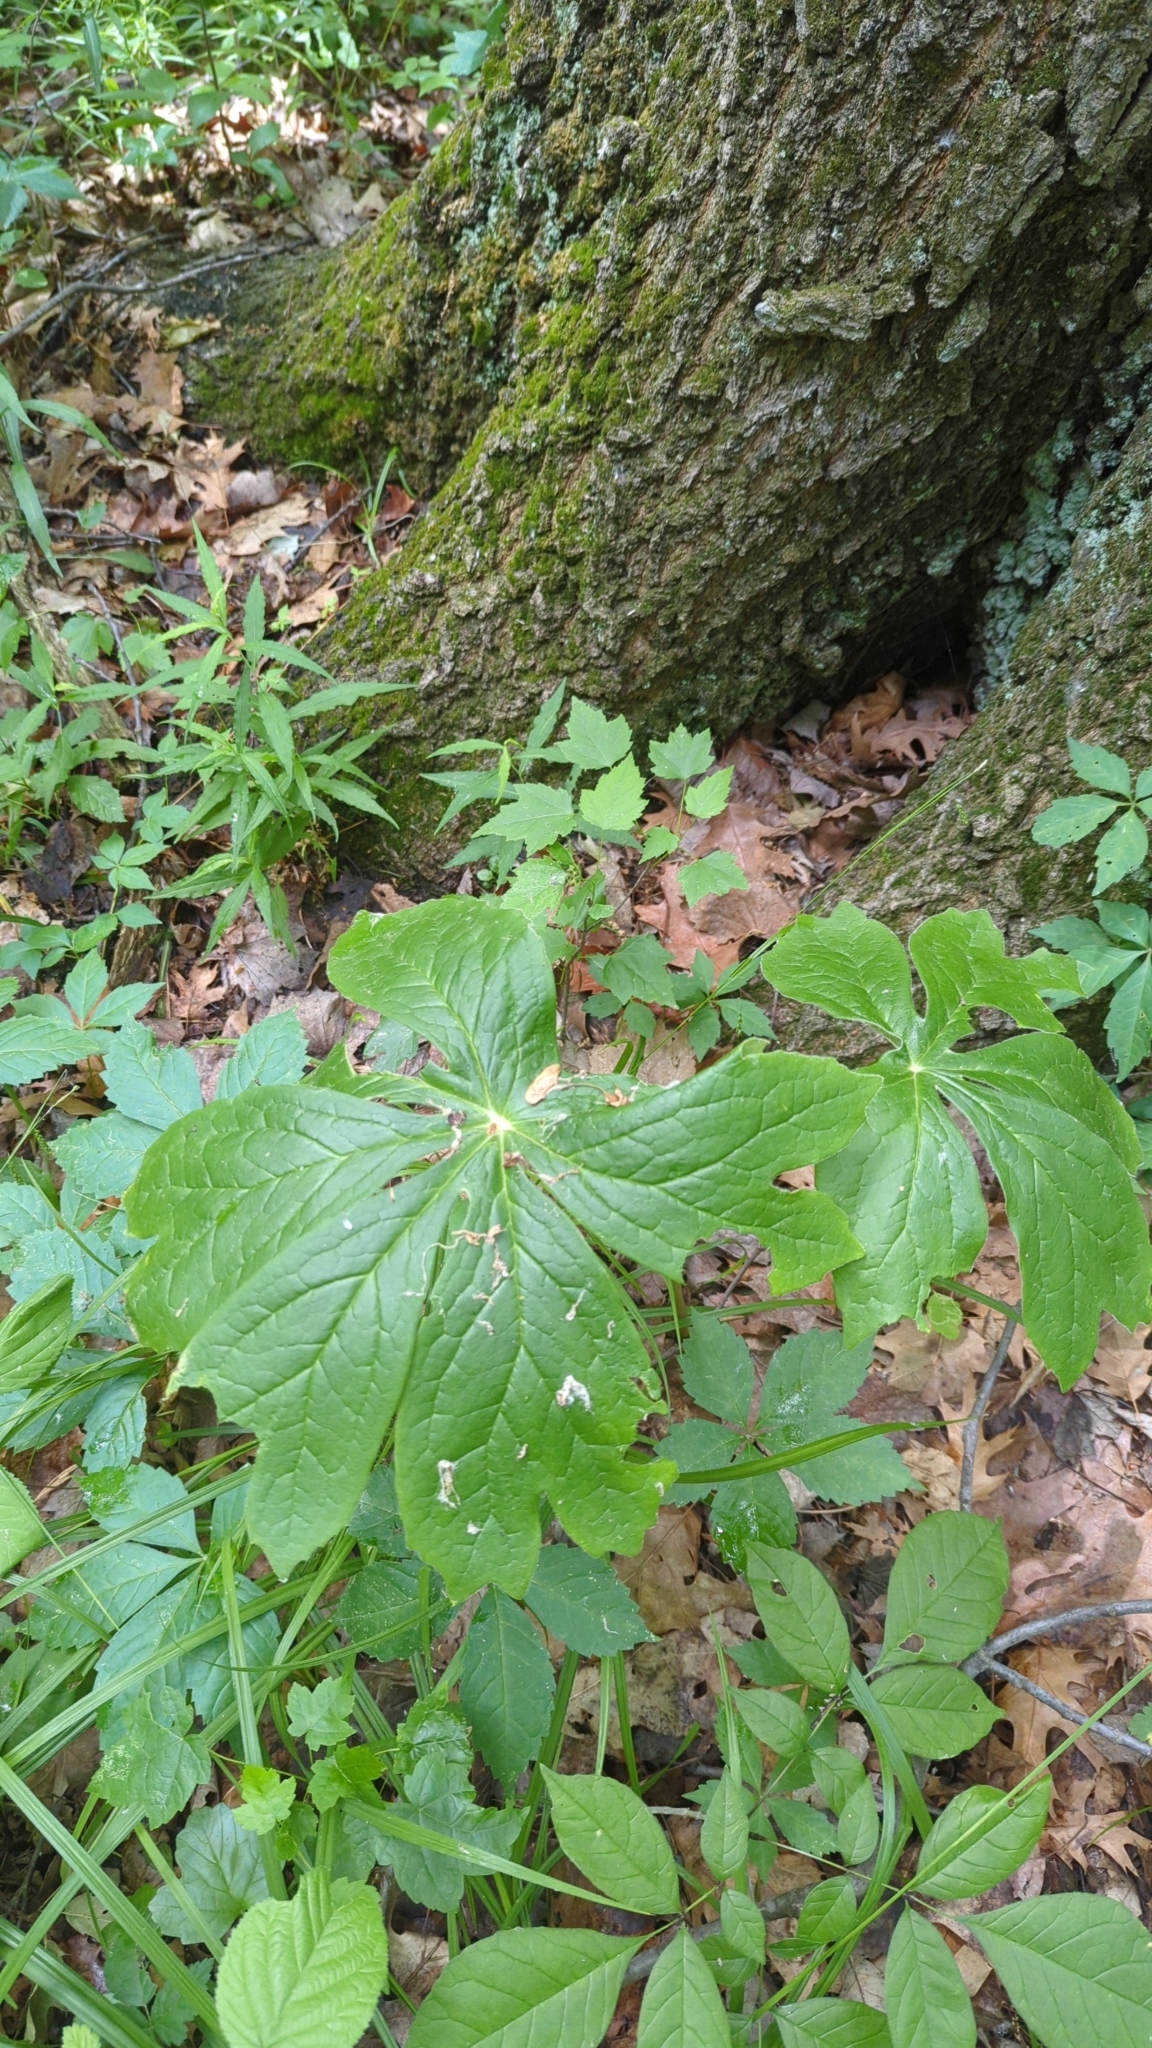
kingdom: Plantae
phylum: Tracheophyta
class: Magnoliopsida
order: Ranunculales
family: Berberidaceae
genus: Podophyllum
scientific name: Podophyllum peltatum
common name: Wild mandrake
